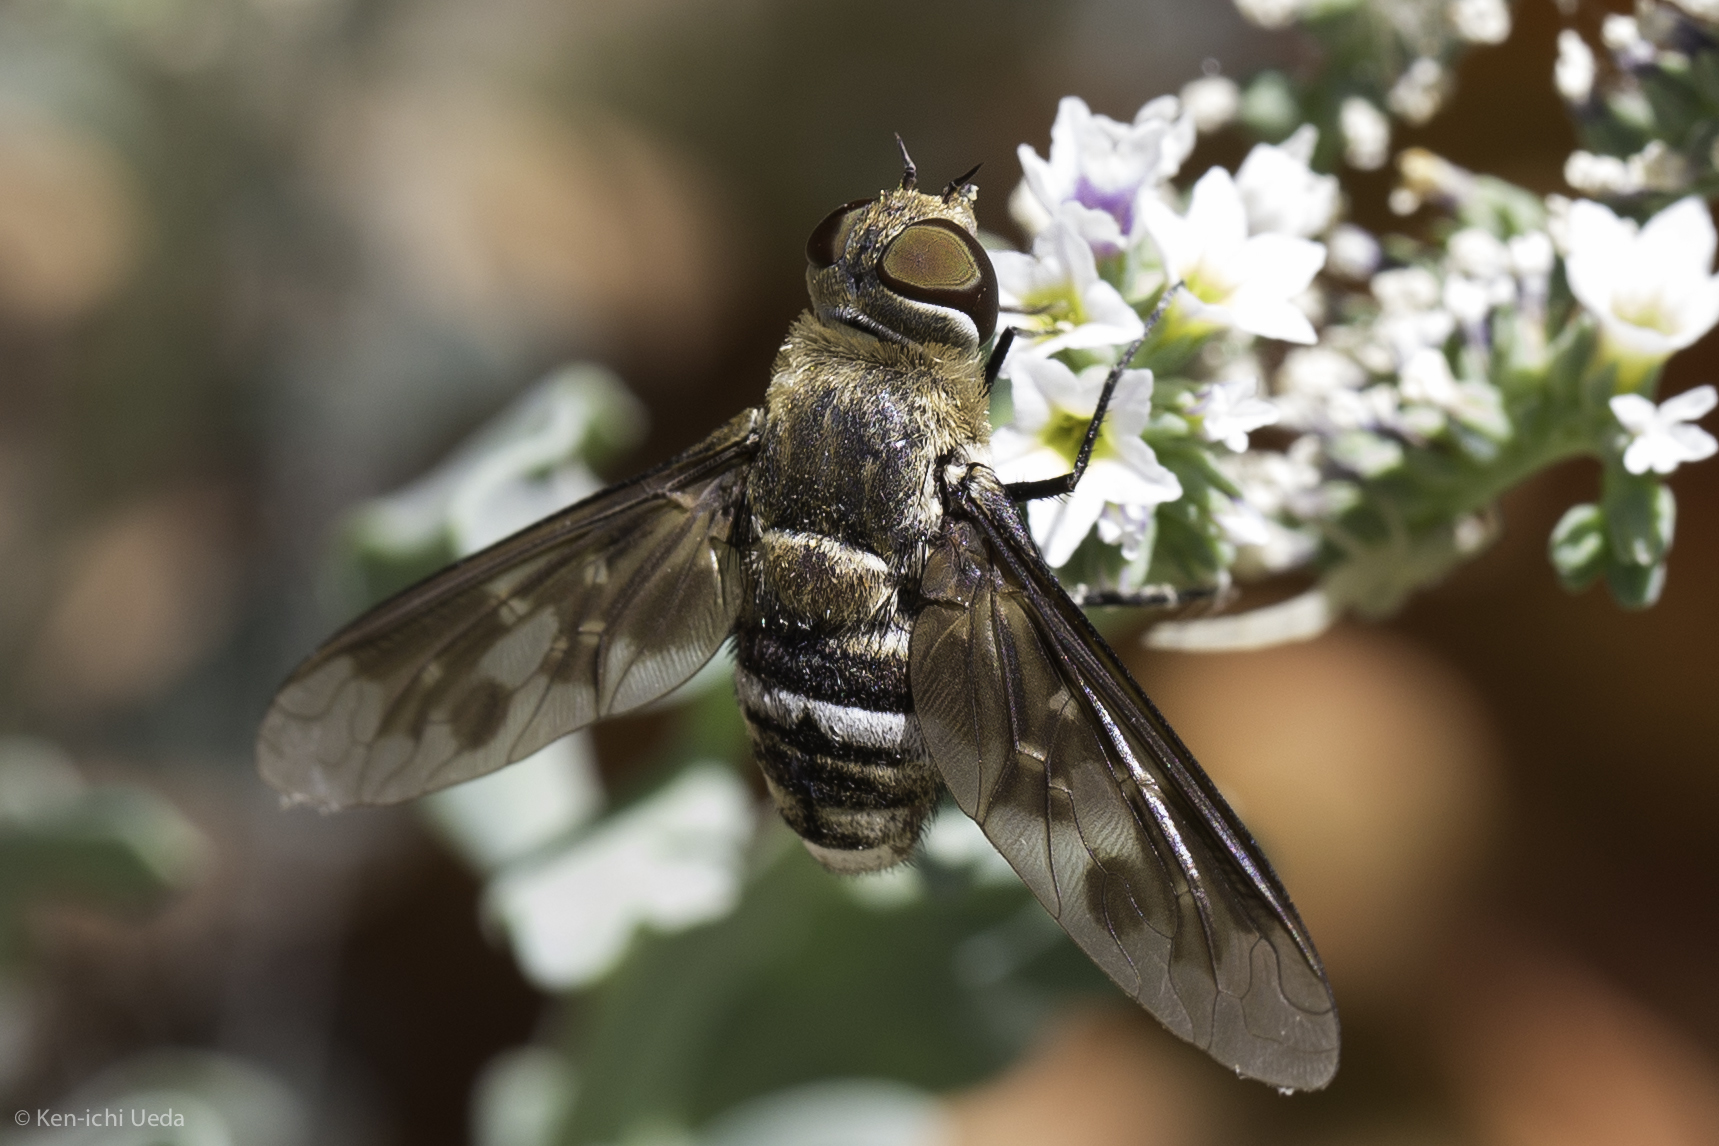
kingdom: Animalia
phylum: Arthropoda
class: Insecta
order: Diptera
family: Bombyliidae
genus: Exoprosopa
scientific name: Exoprosopa divisa
